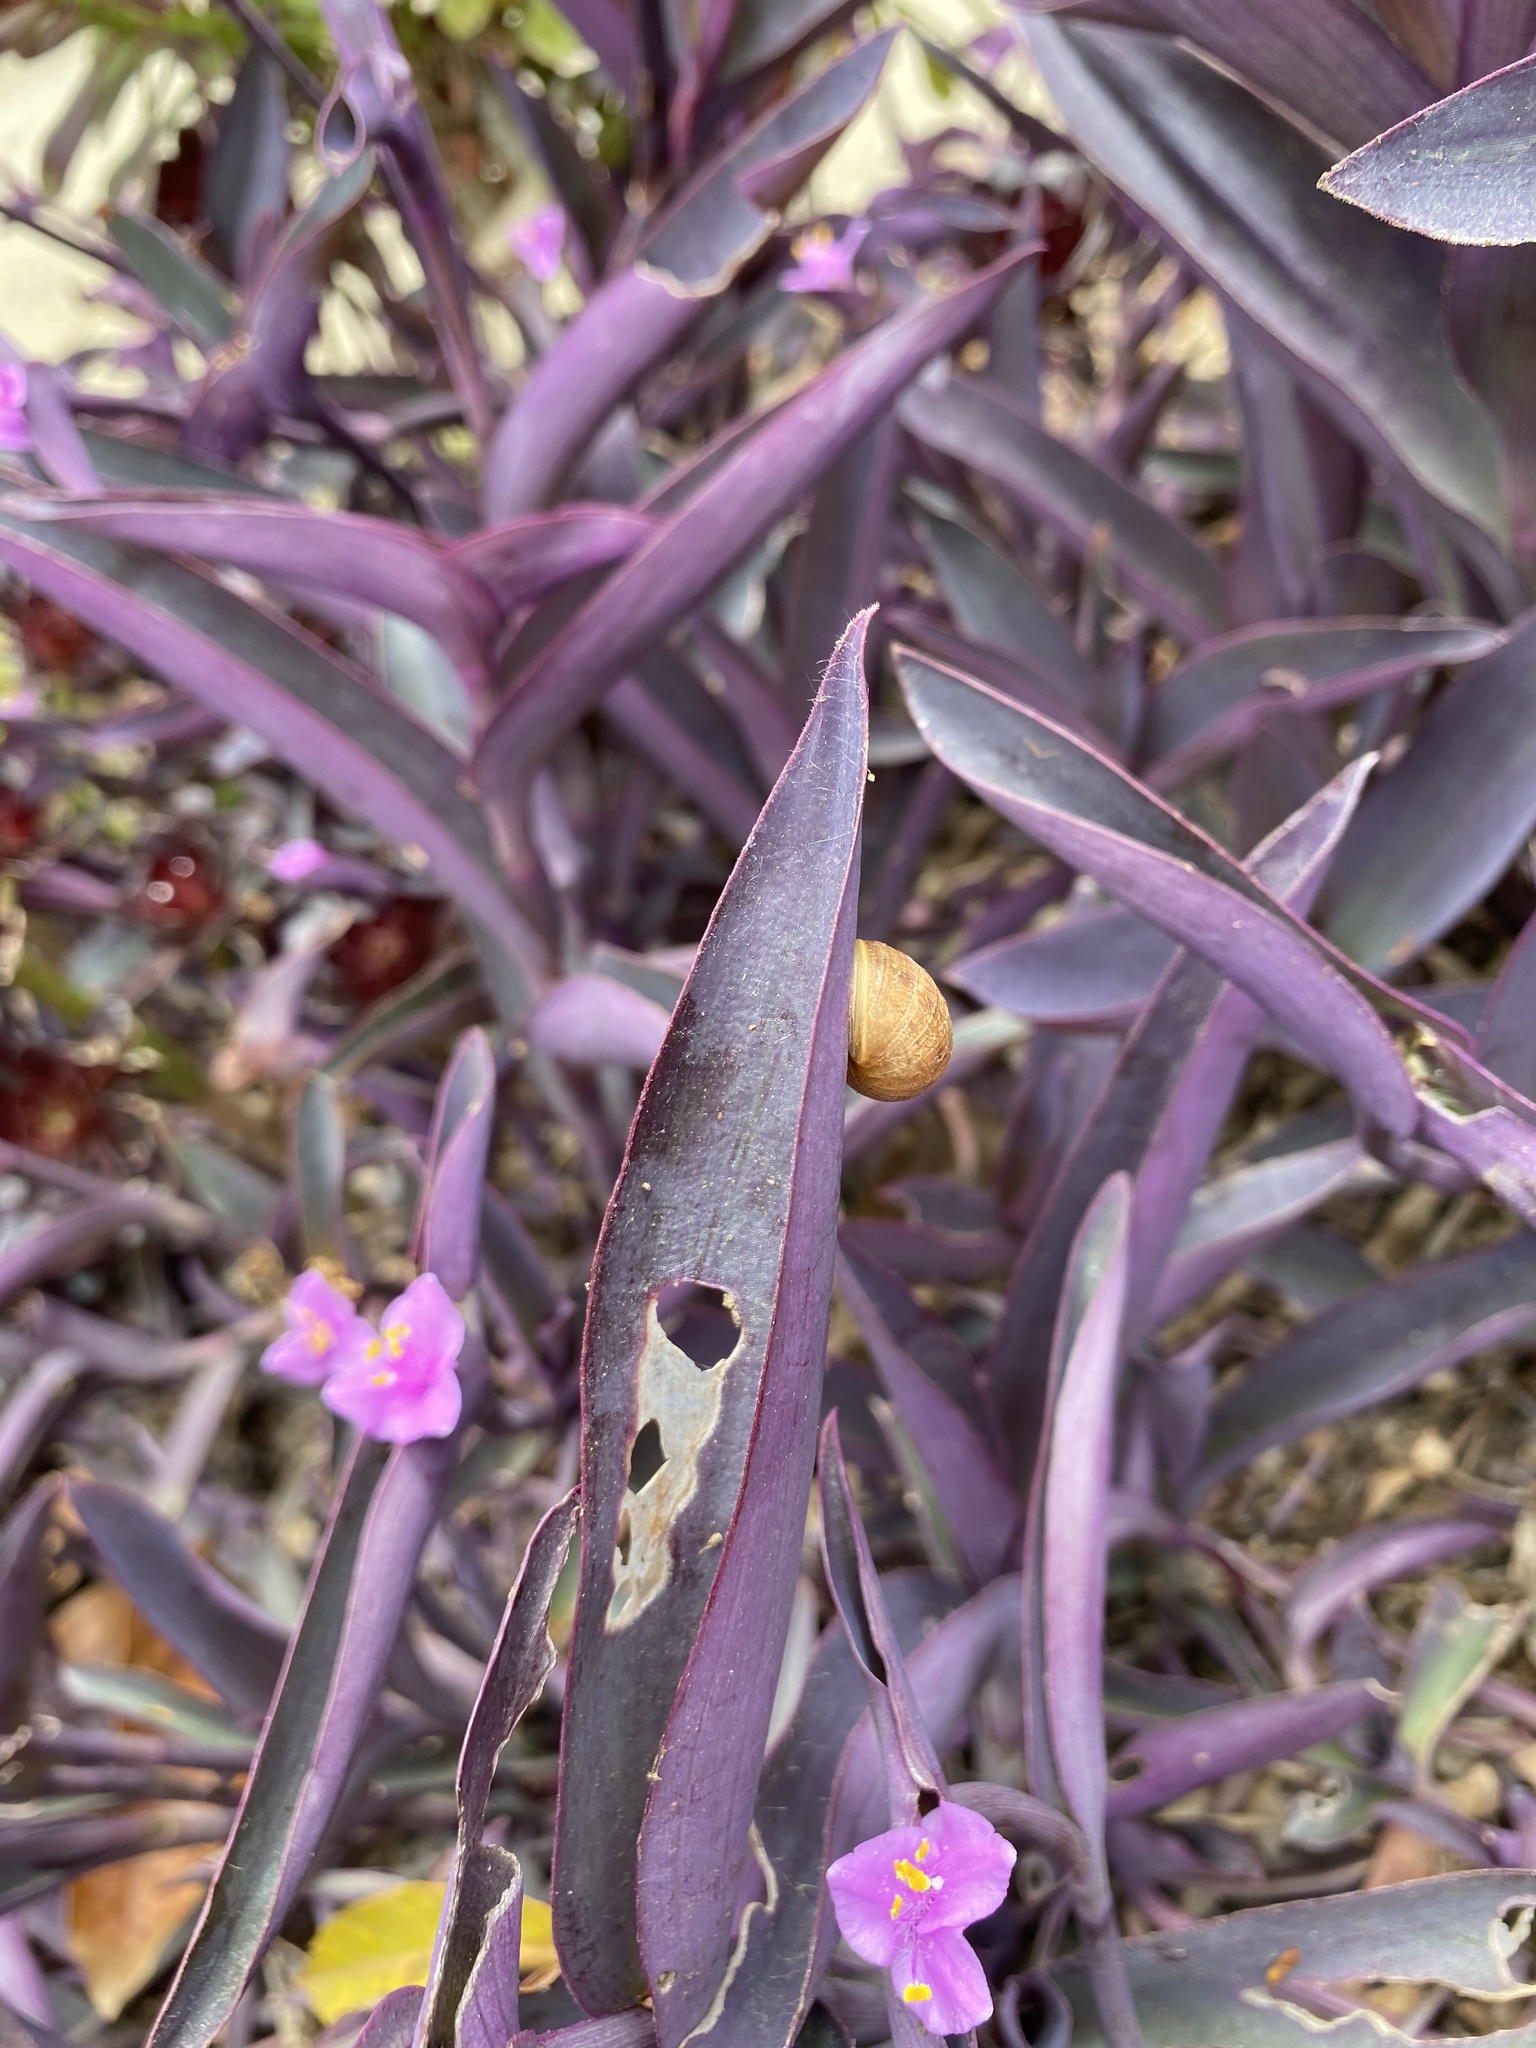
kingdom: Animalia
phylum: Mollusca
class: Gastropoda
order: Stylommatophora
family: Helicidae
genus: Cornu
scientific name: Cornu aspersum
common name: Brown garden snail
